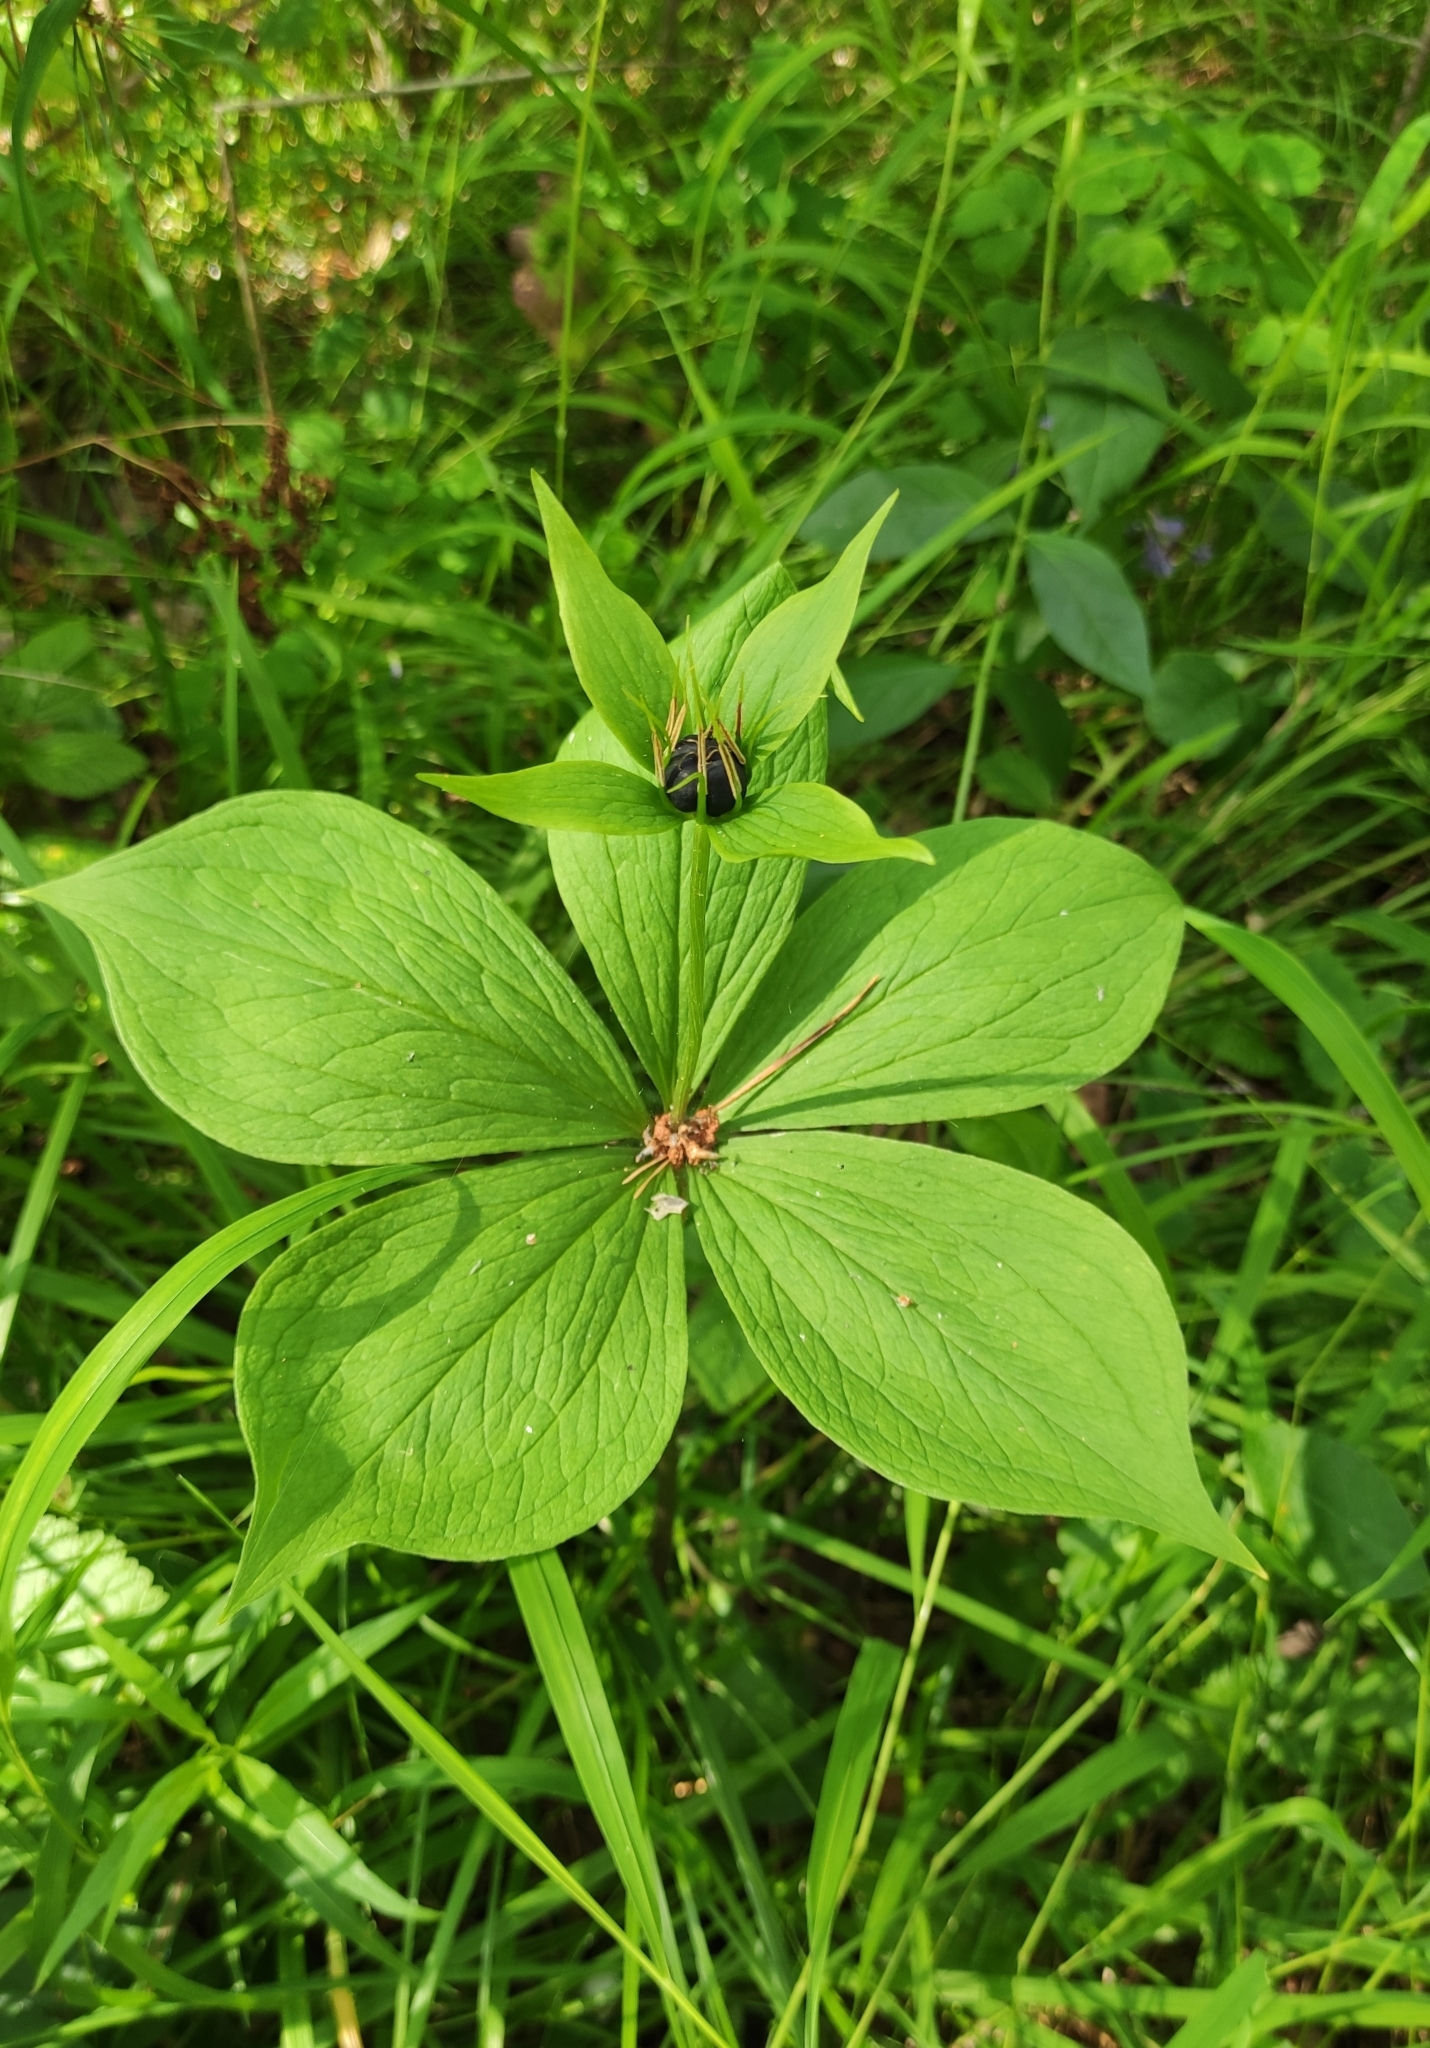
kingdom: Plantae
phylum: Tracheophyta
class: Liliopsida
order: Liliales
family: Melanthiaceae
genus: Paris
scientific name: Paris verticillata
